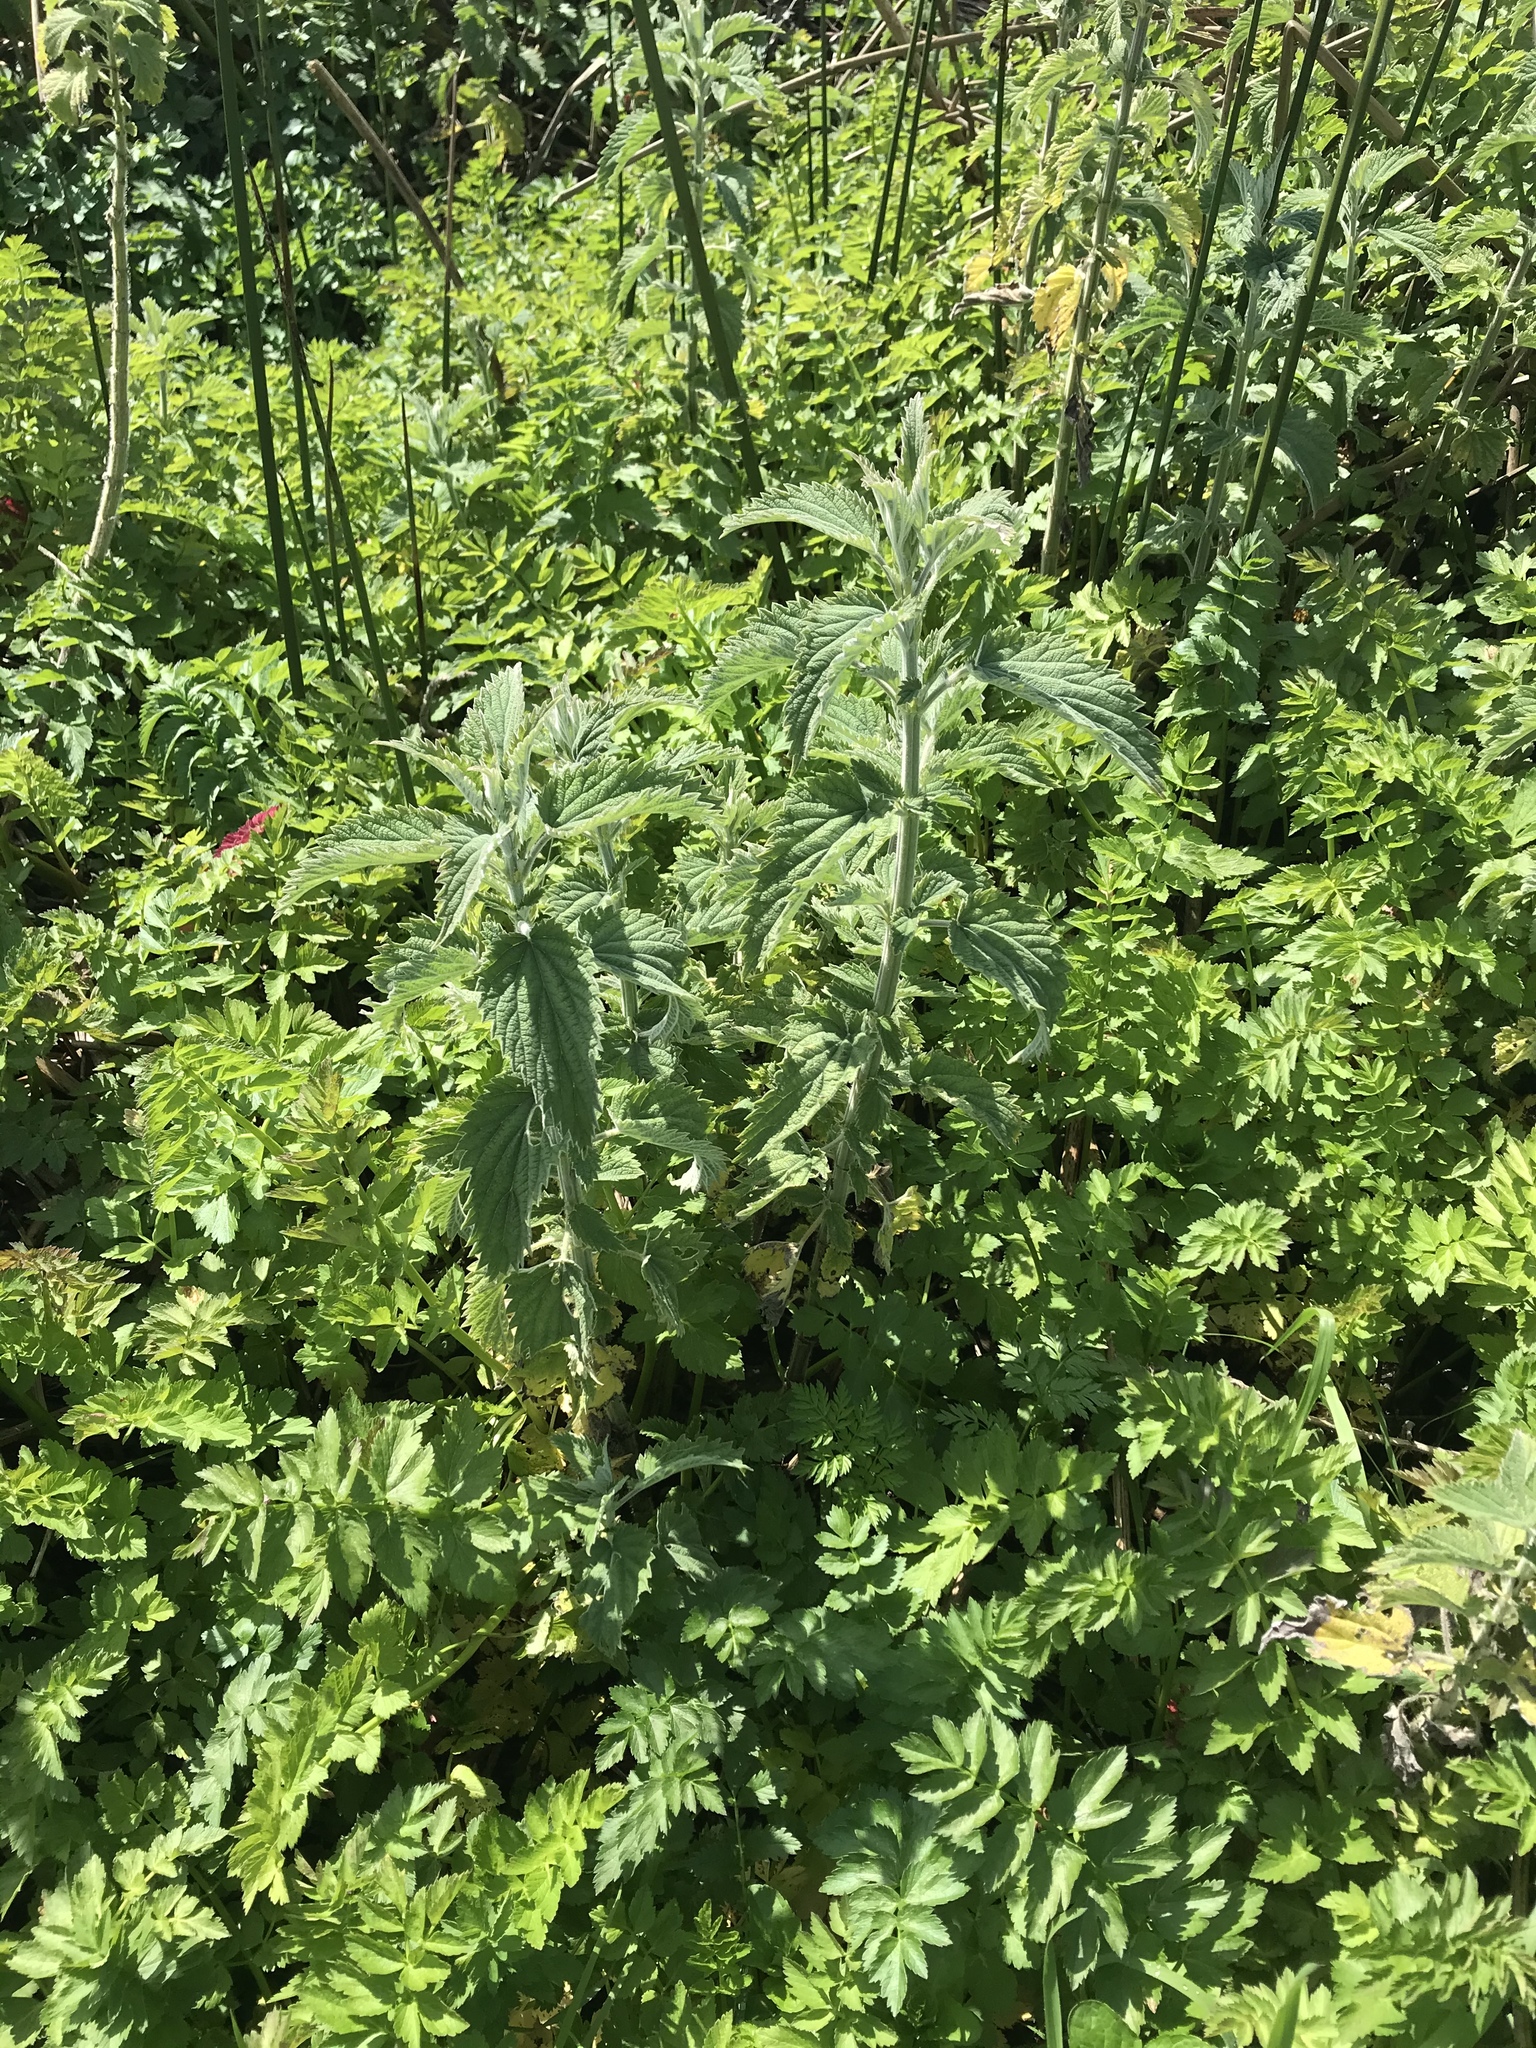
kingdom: Plantae
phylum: Tracheophyta
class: Magnoliopsida
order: Rosales
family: Urticaceae
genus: Urtica
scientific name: Urtica dioica
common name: Common nettle
